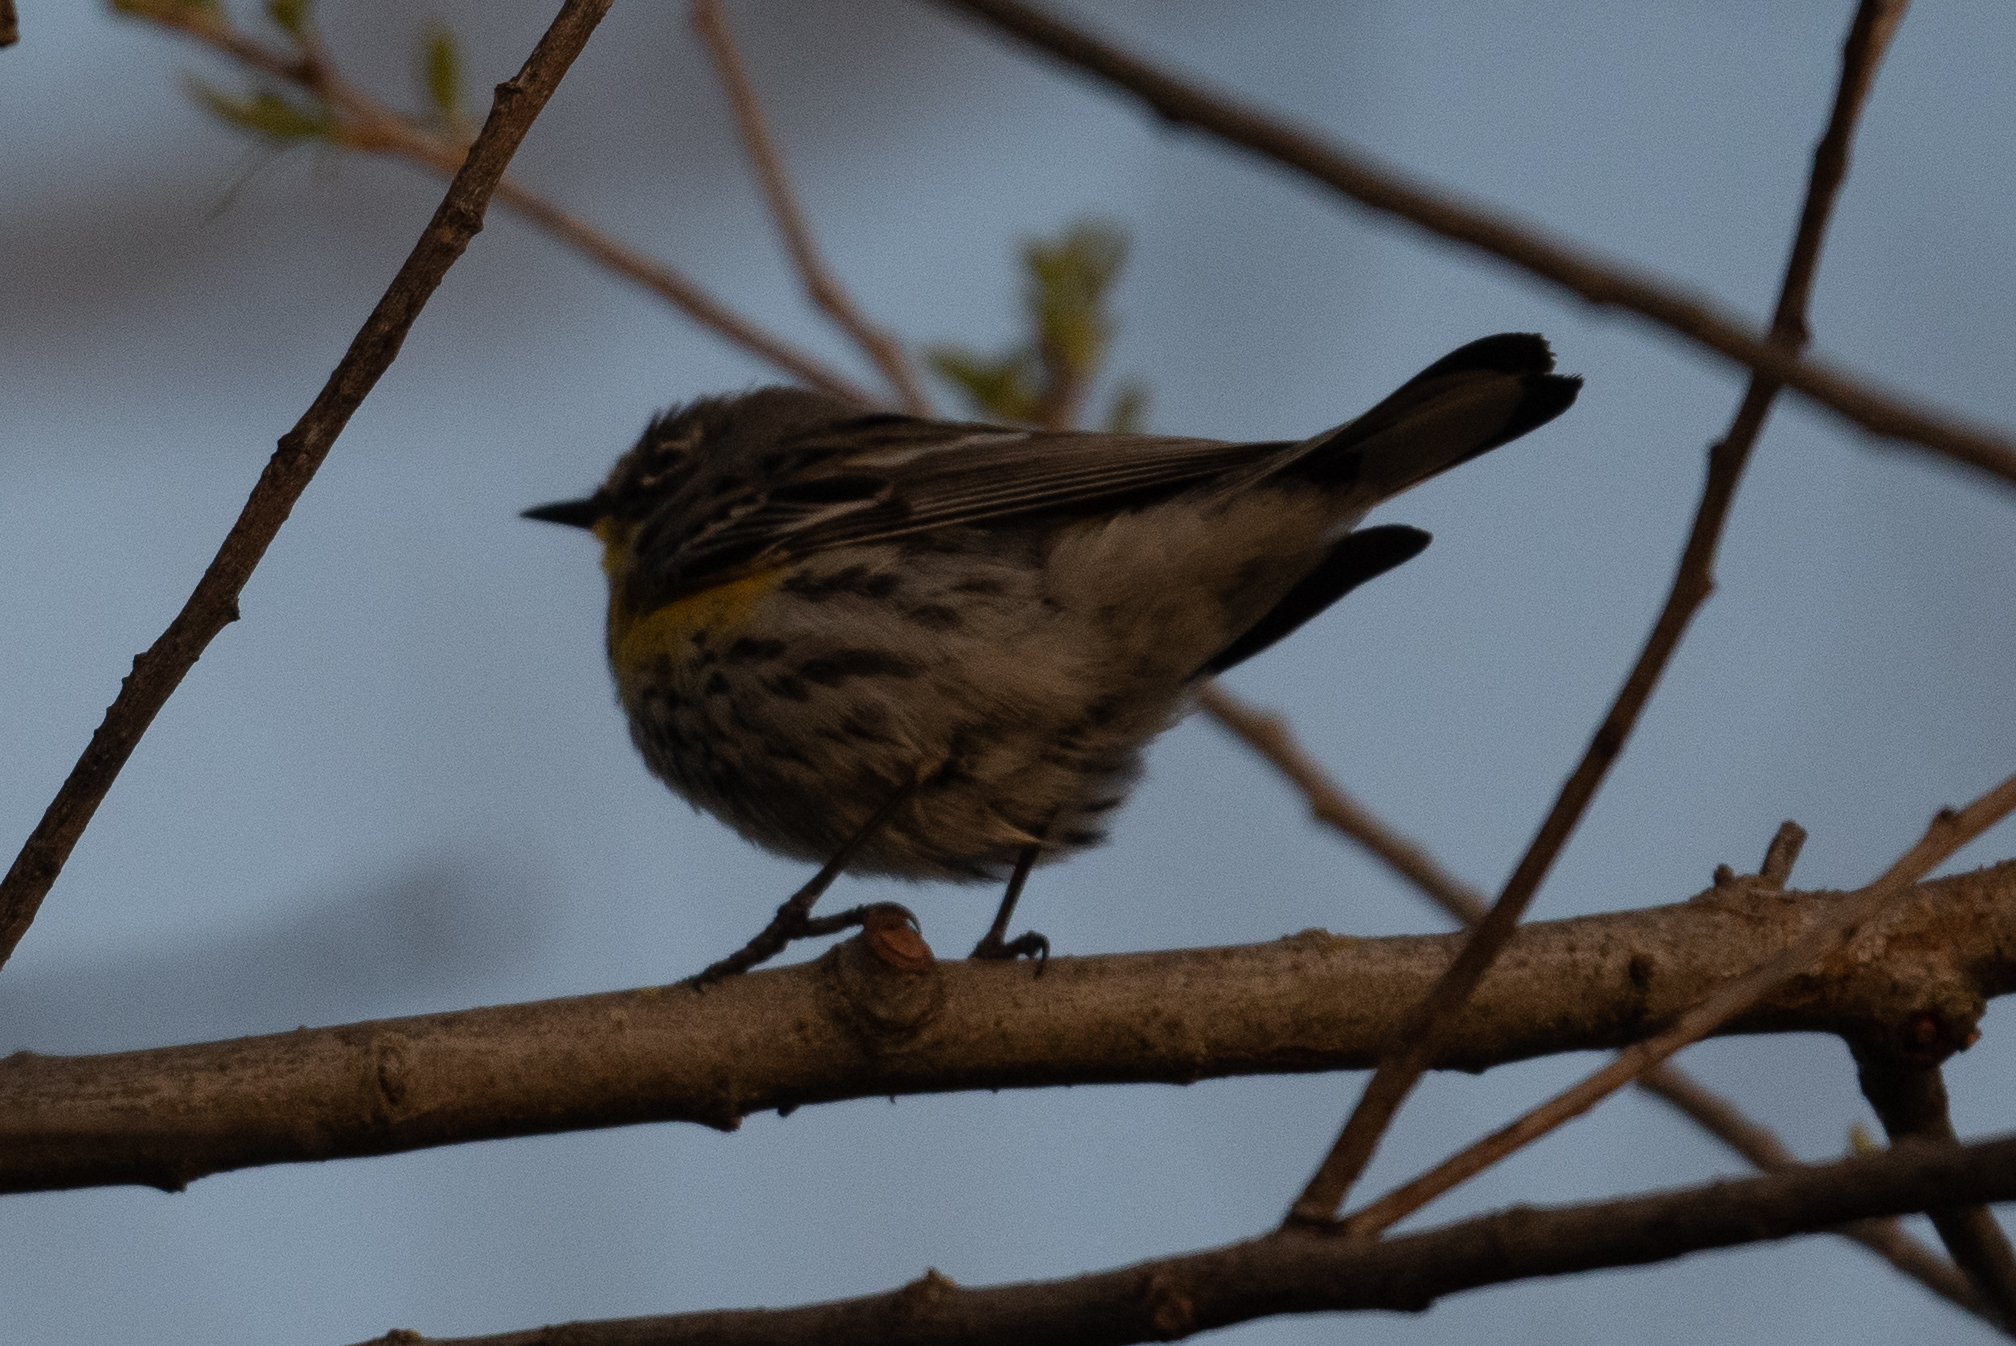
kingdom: Animalia
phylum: Chordata
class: Aves
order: Passeriformes
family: Parulidae
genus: Setophaga
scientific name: Setophaga coronata
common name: Myrtle warbler
